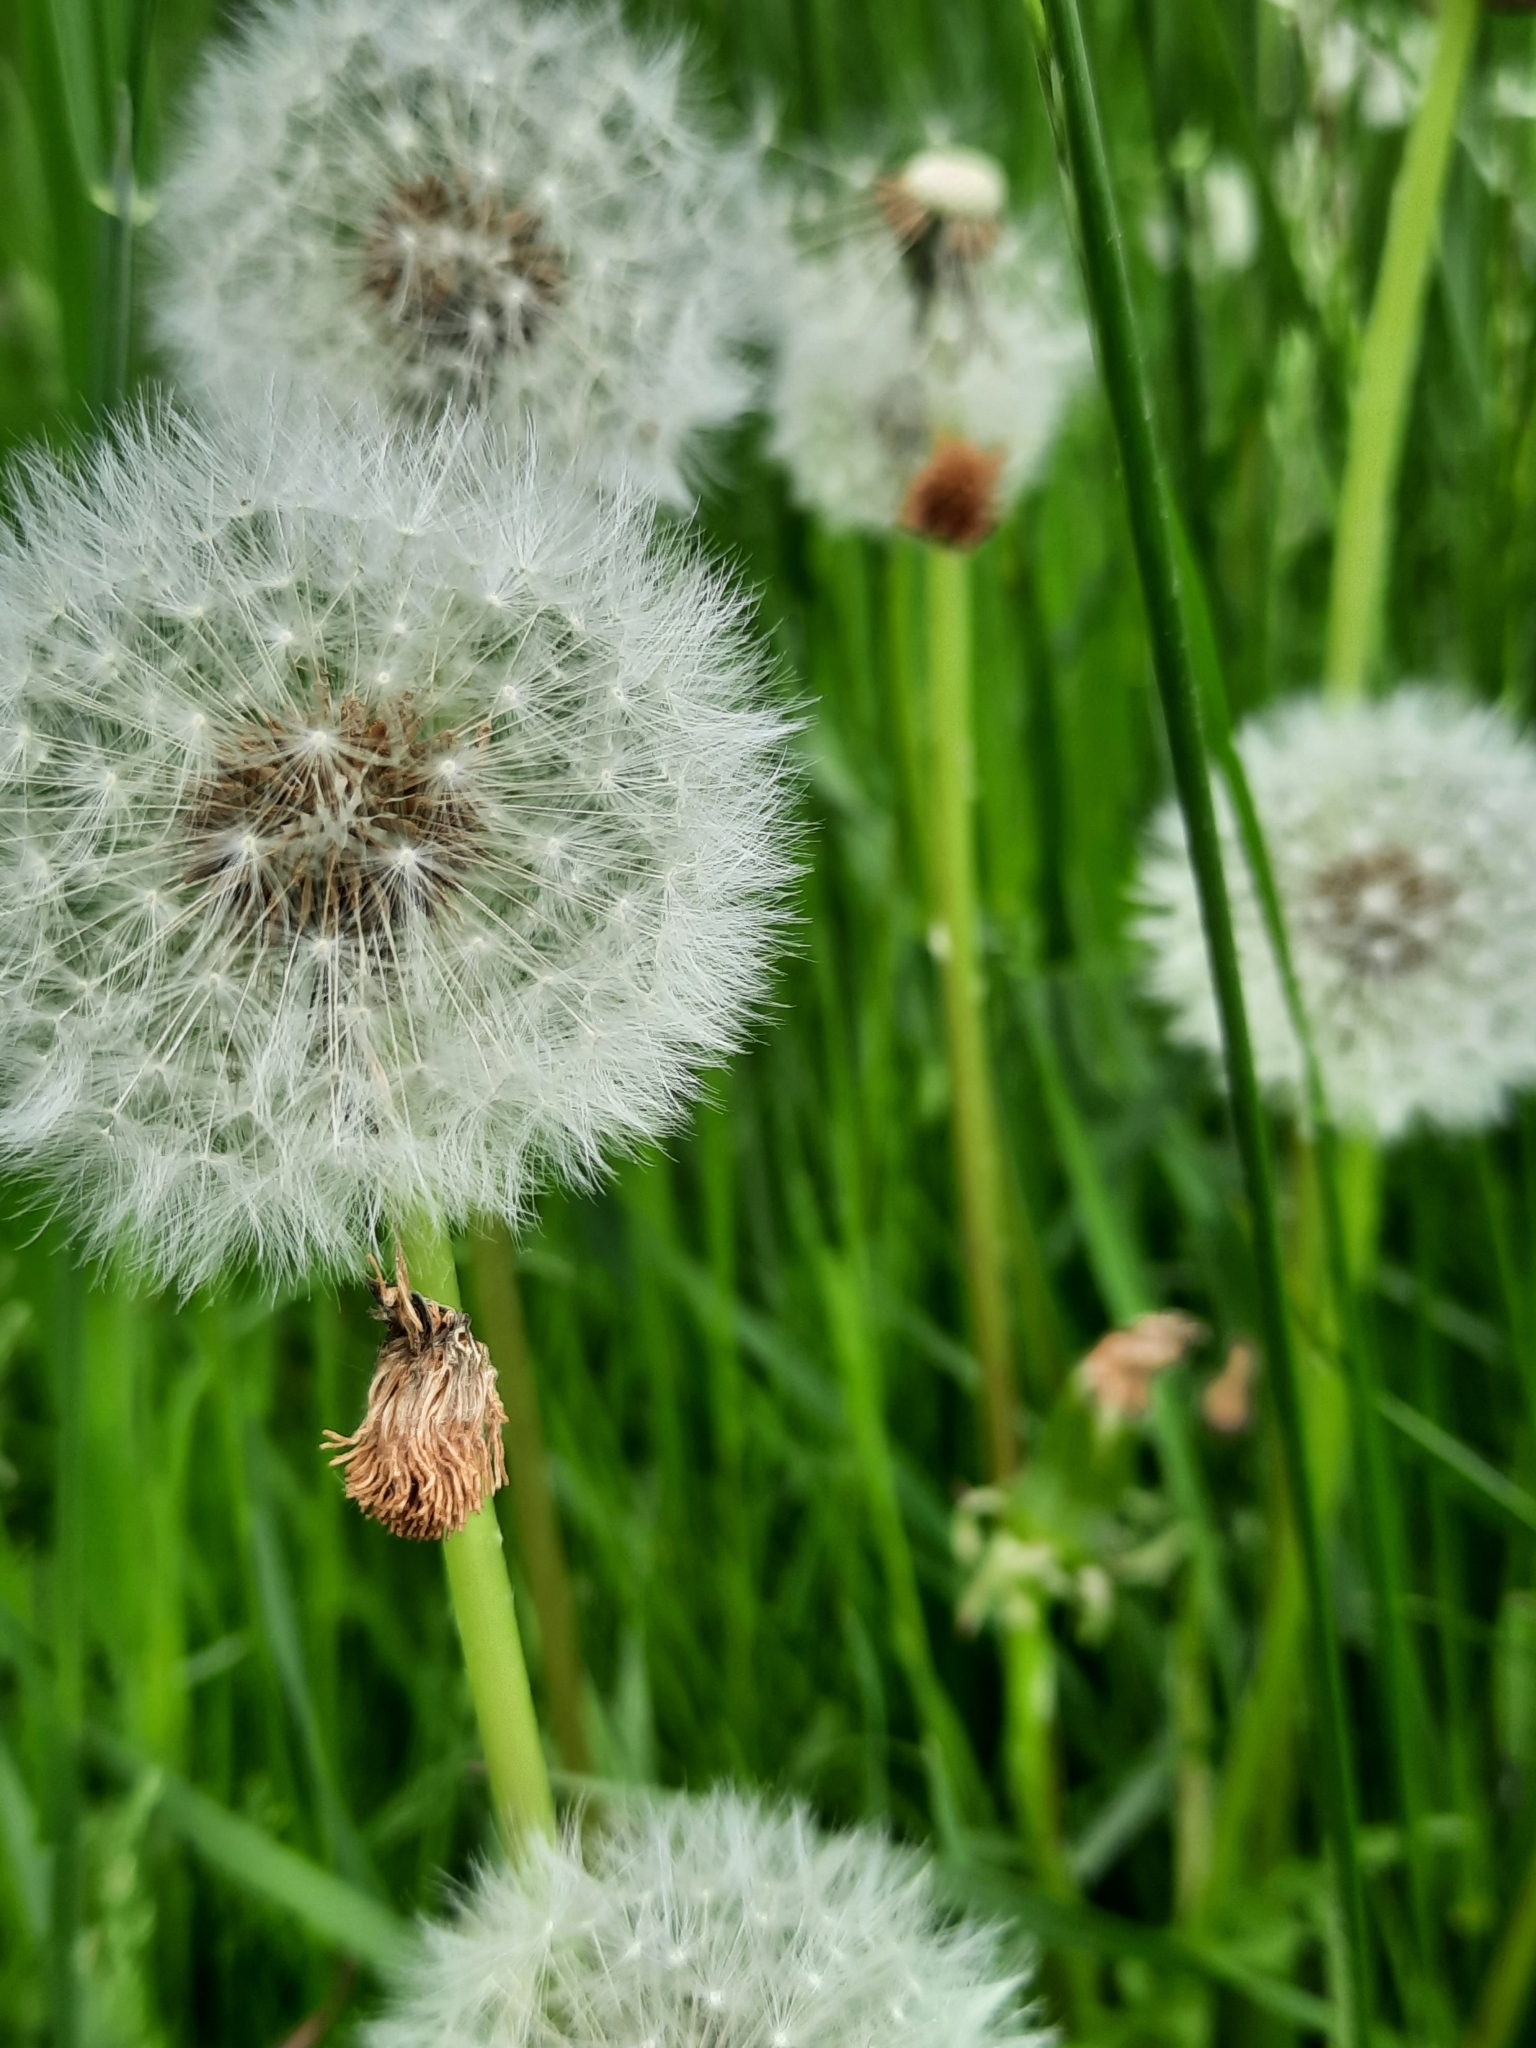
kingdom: Plantae
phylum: Tracheophyta
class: Magnoliopsida
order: Asterales
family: Asteraceae
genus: Taraxacum
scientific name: Taraxacum officinale
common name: Common dandelion
